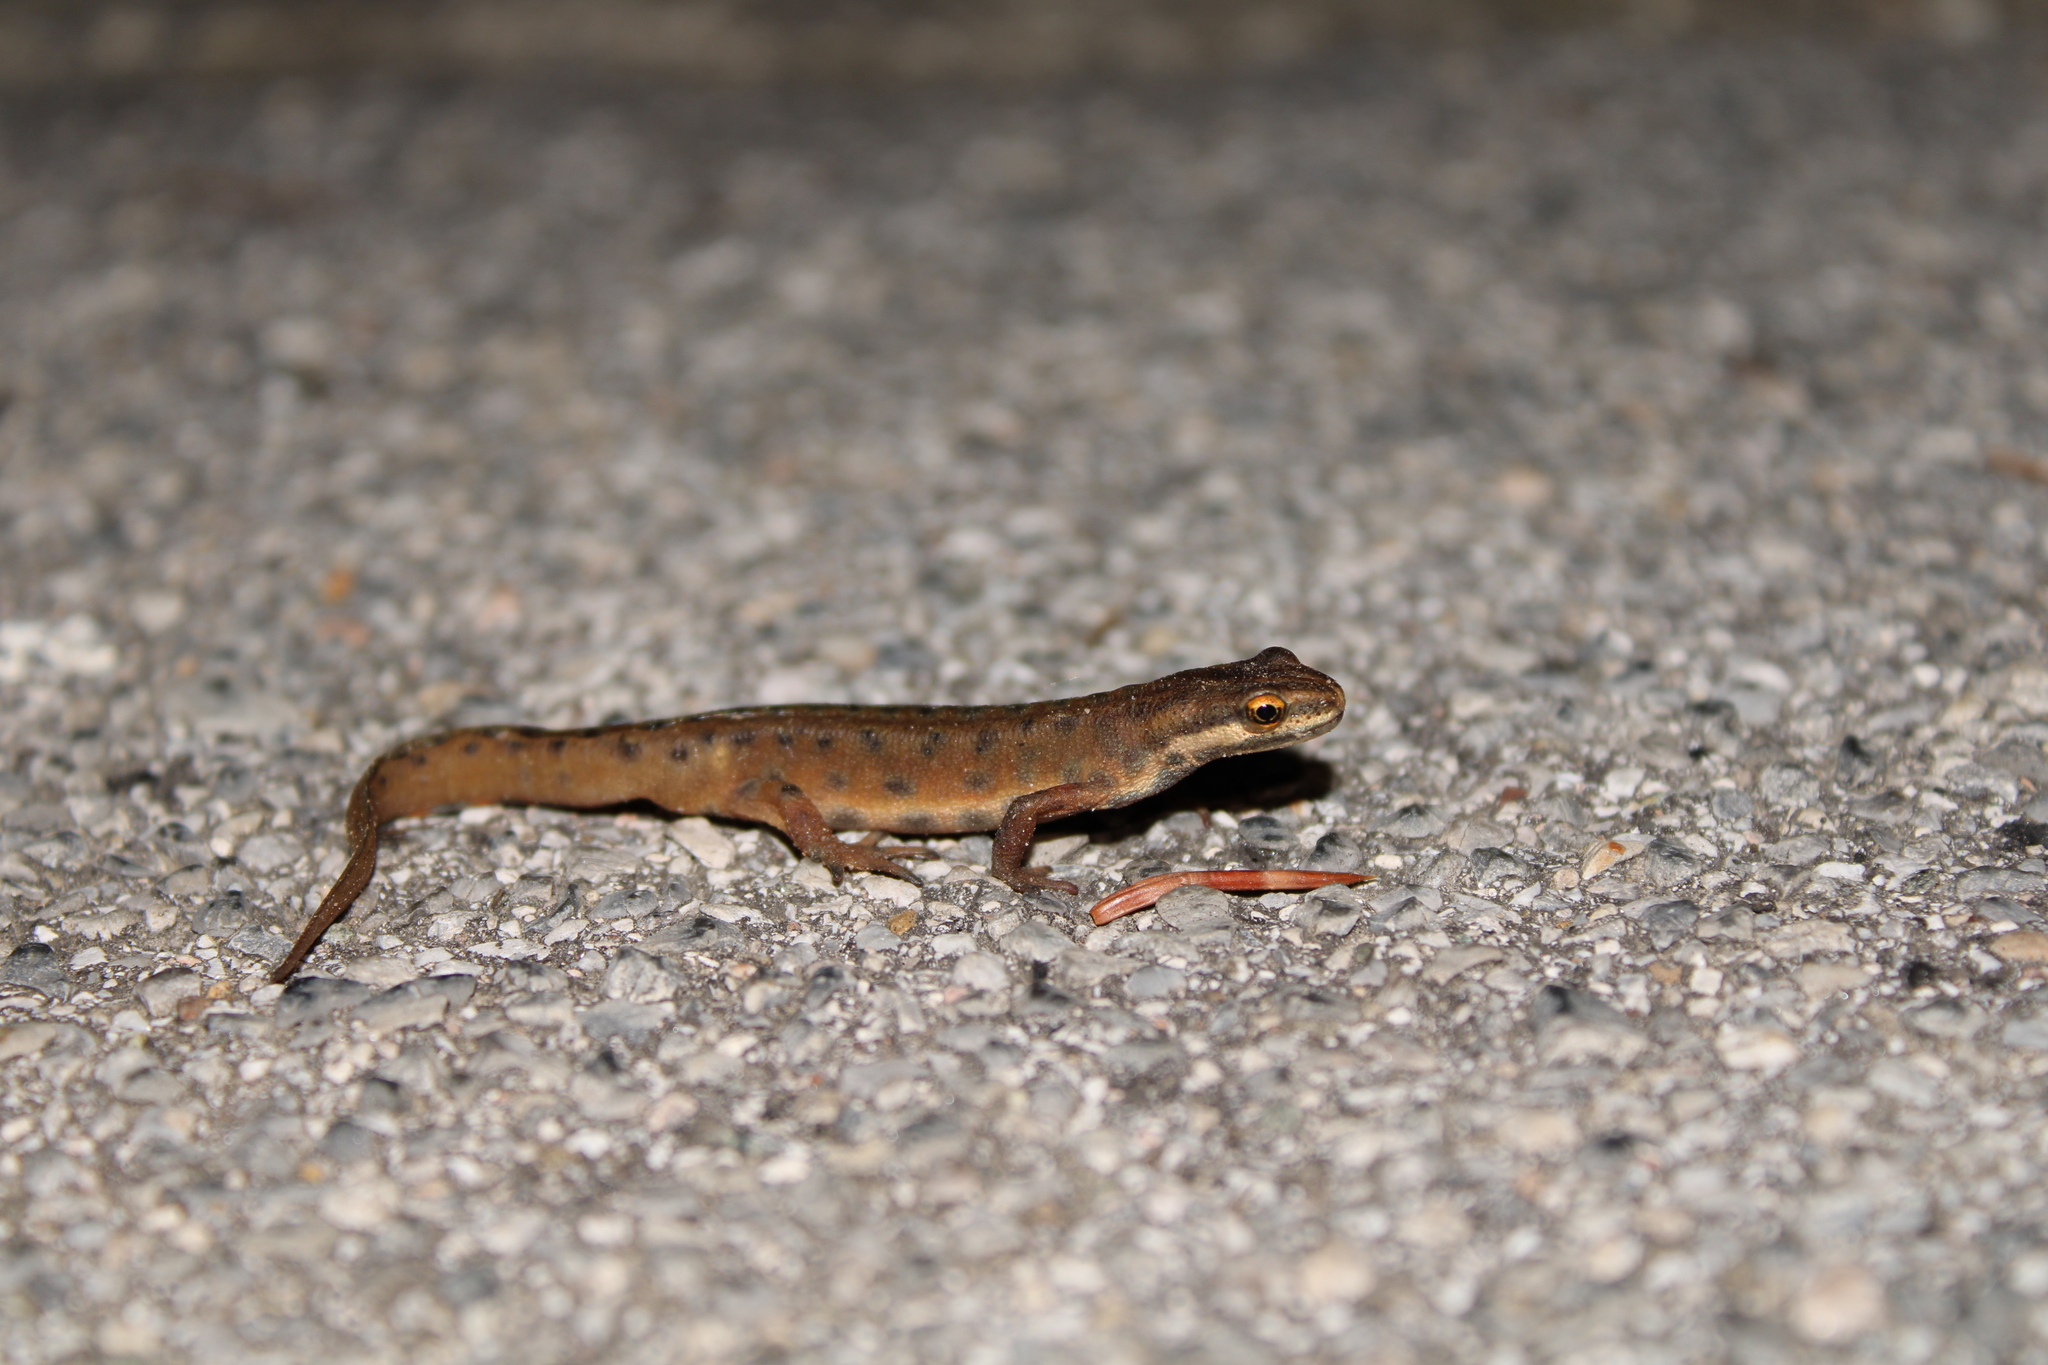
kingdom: Animalia
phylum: Chordata
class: Amphibia
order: Caudata
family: Salamandridae
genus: Lissotriton
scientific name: Lissotriton vulgaris
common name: Smooth newt
